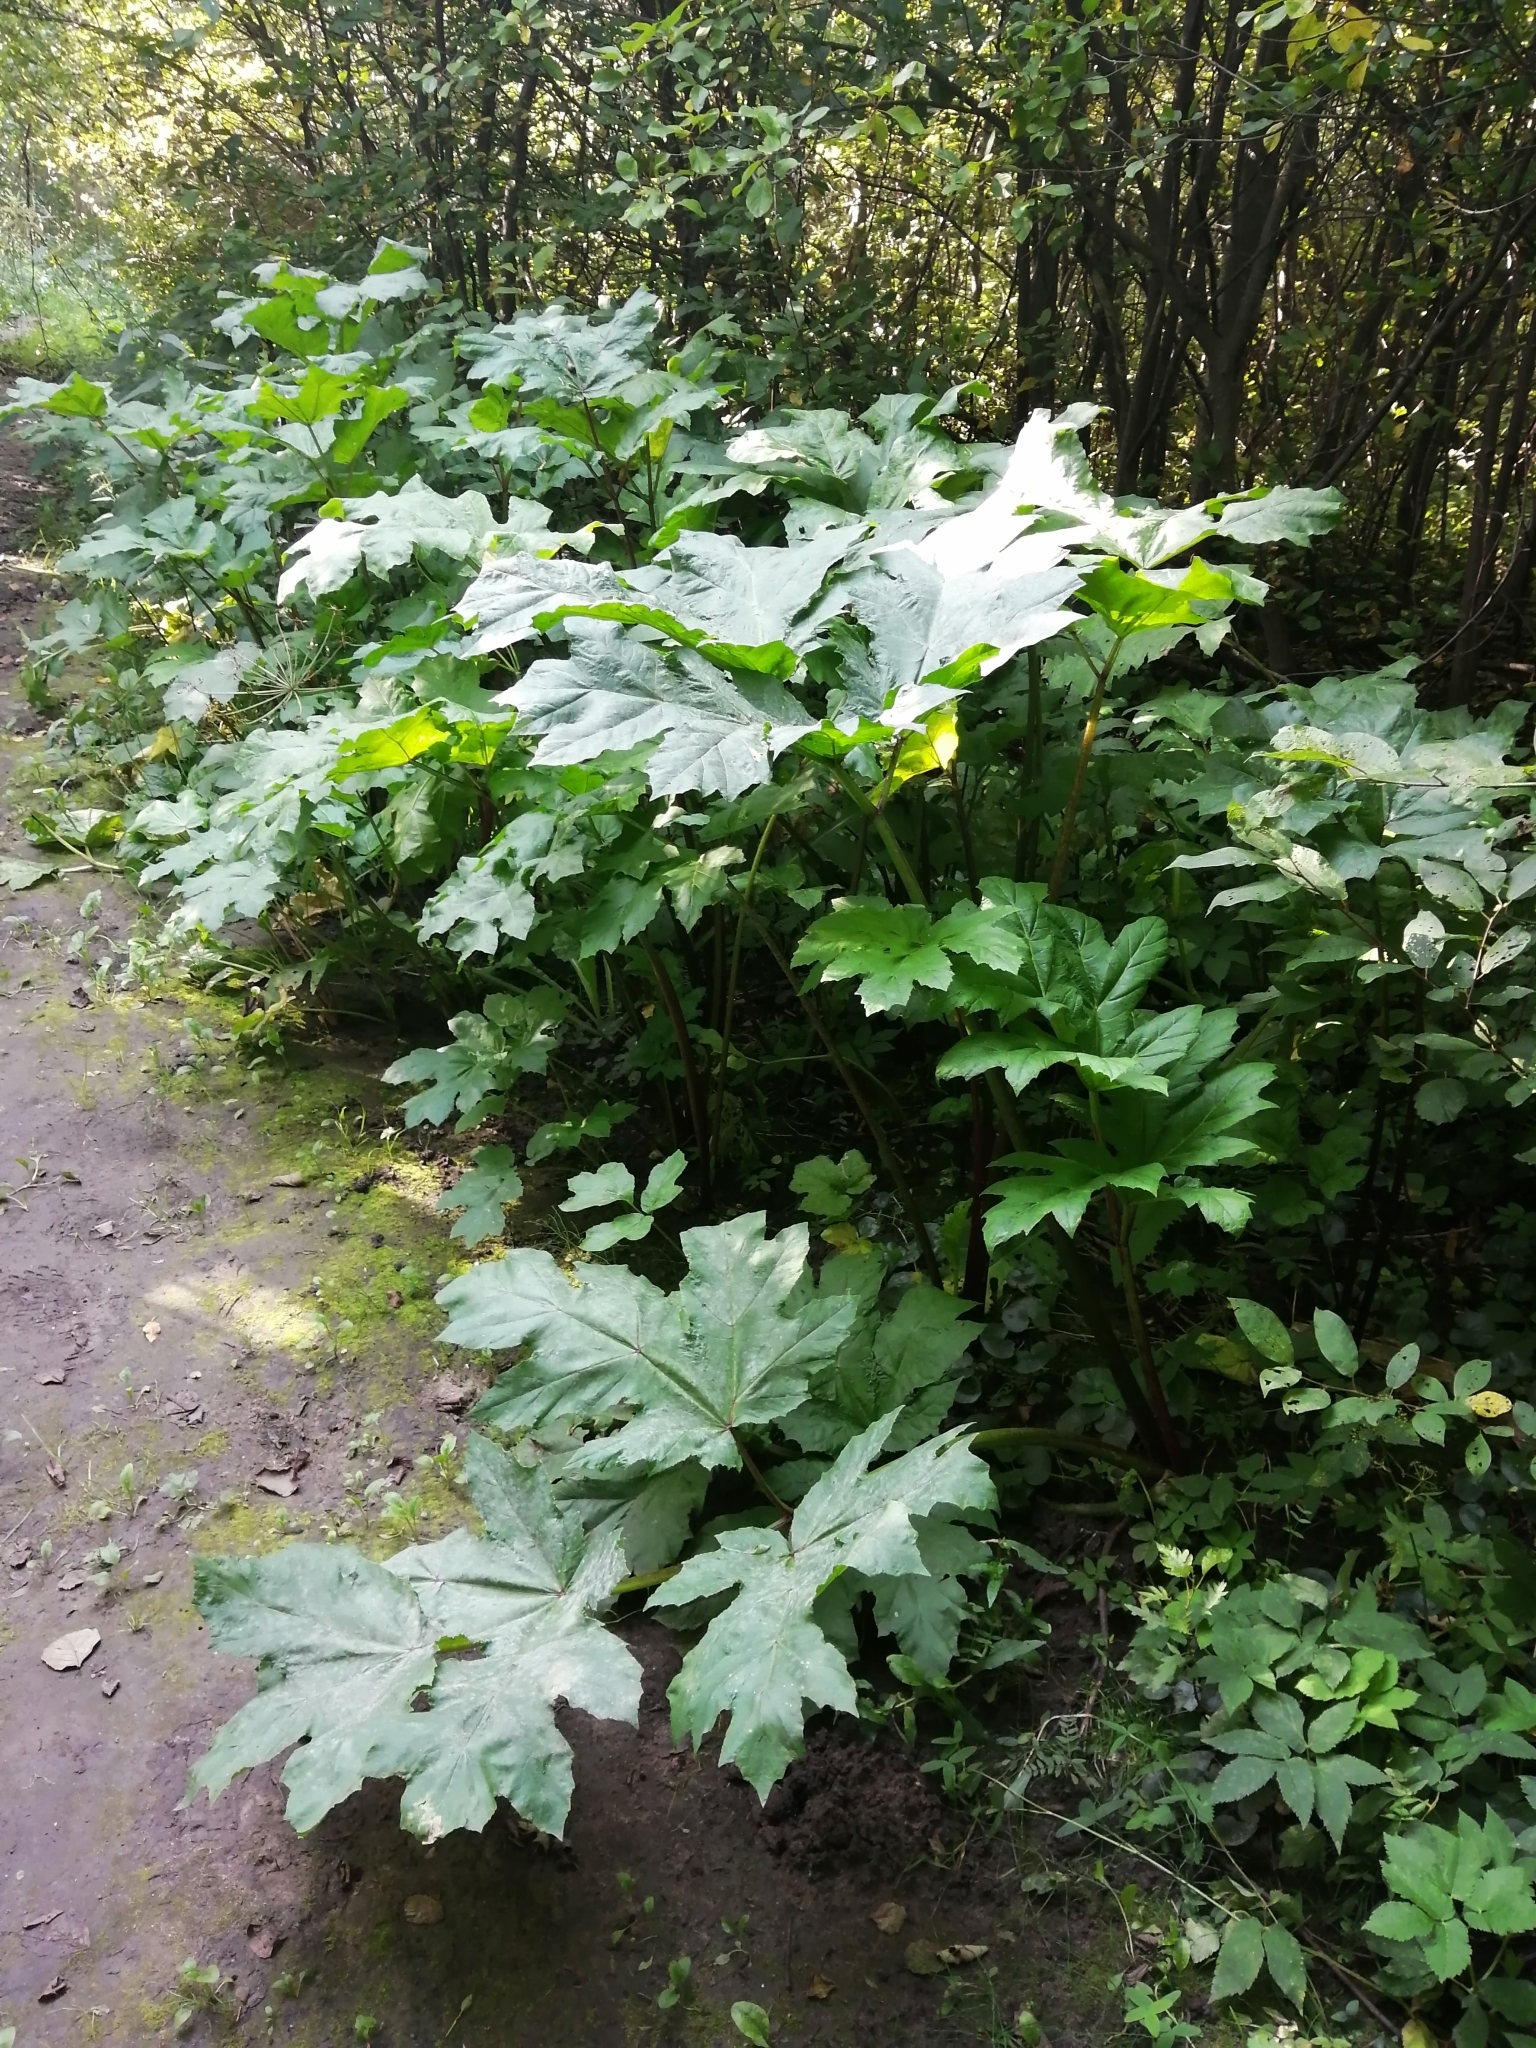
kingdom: Plantae
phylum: Tracheophyta
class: Magnoliopsida
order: Apiales
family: Apiaceae
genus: Heracleum
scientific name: Heracleum sosnowskyi
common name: Sosnowsky's hogweed
